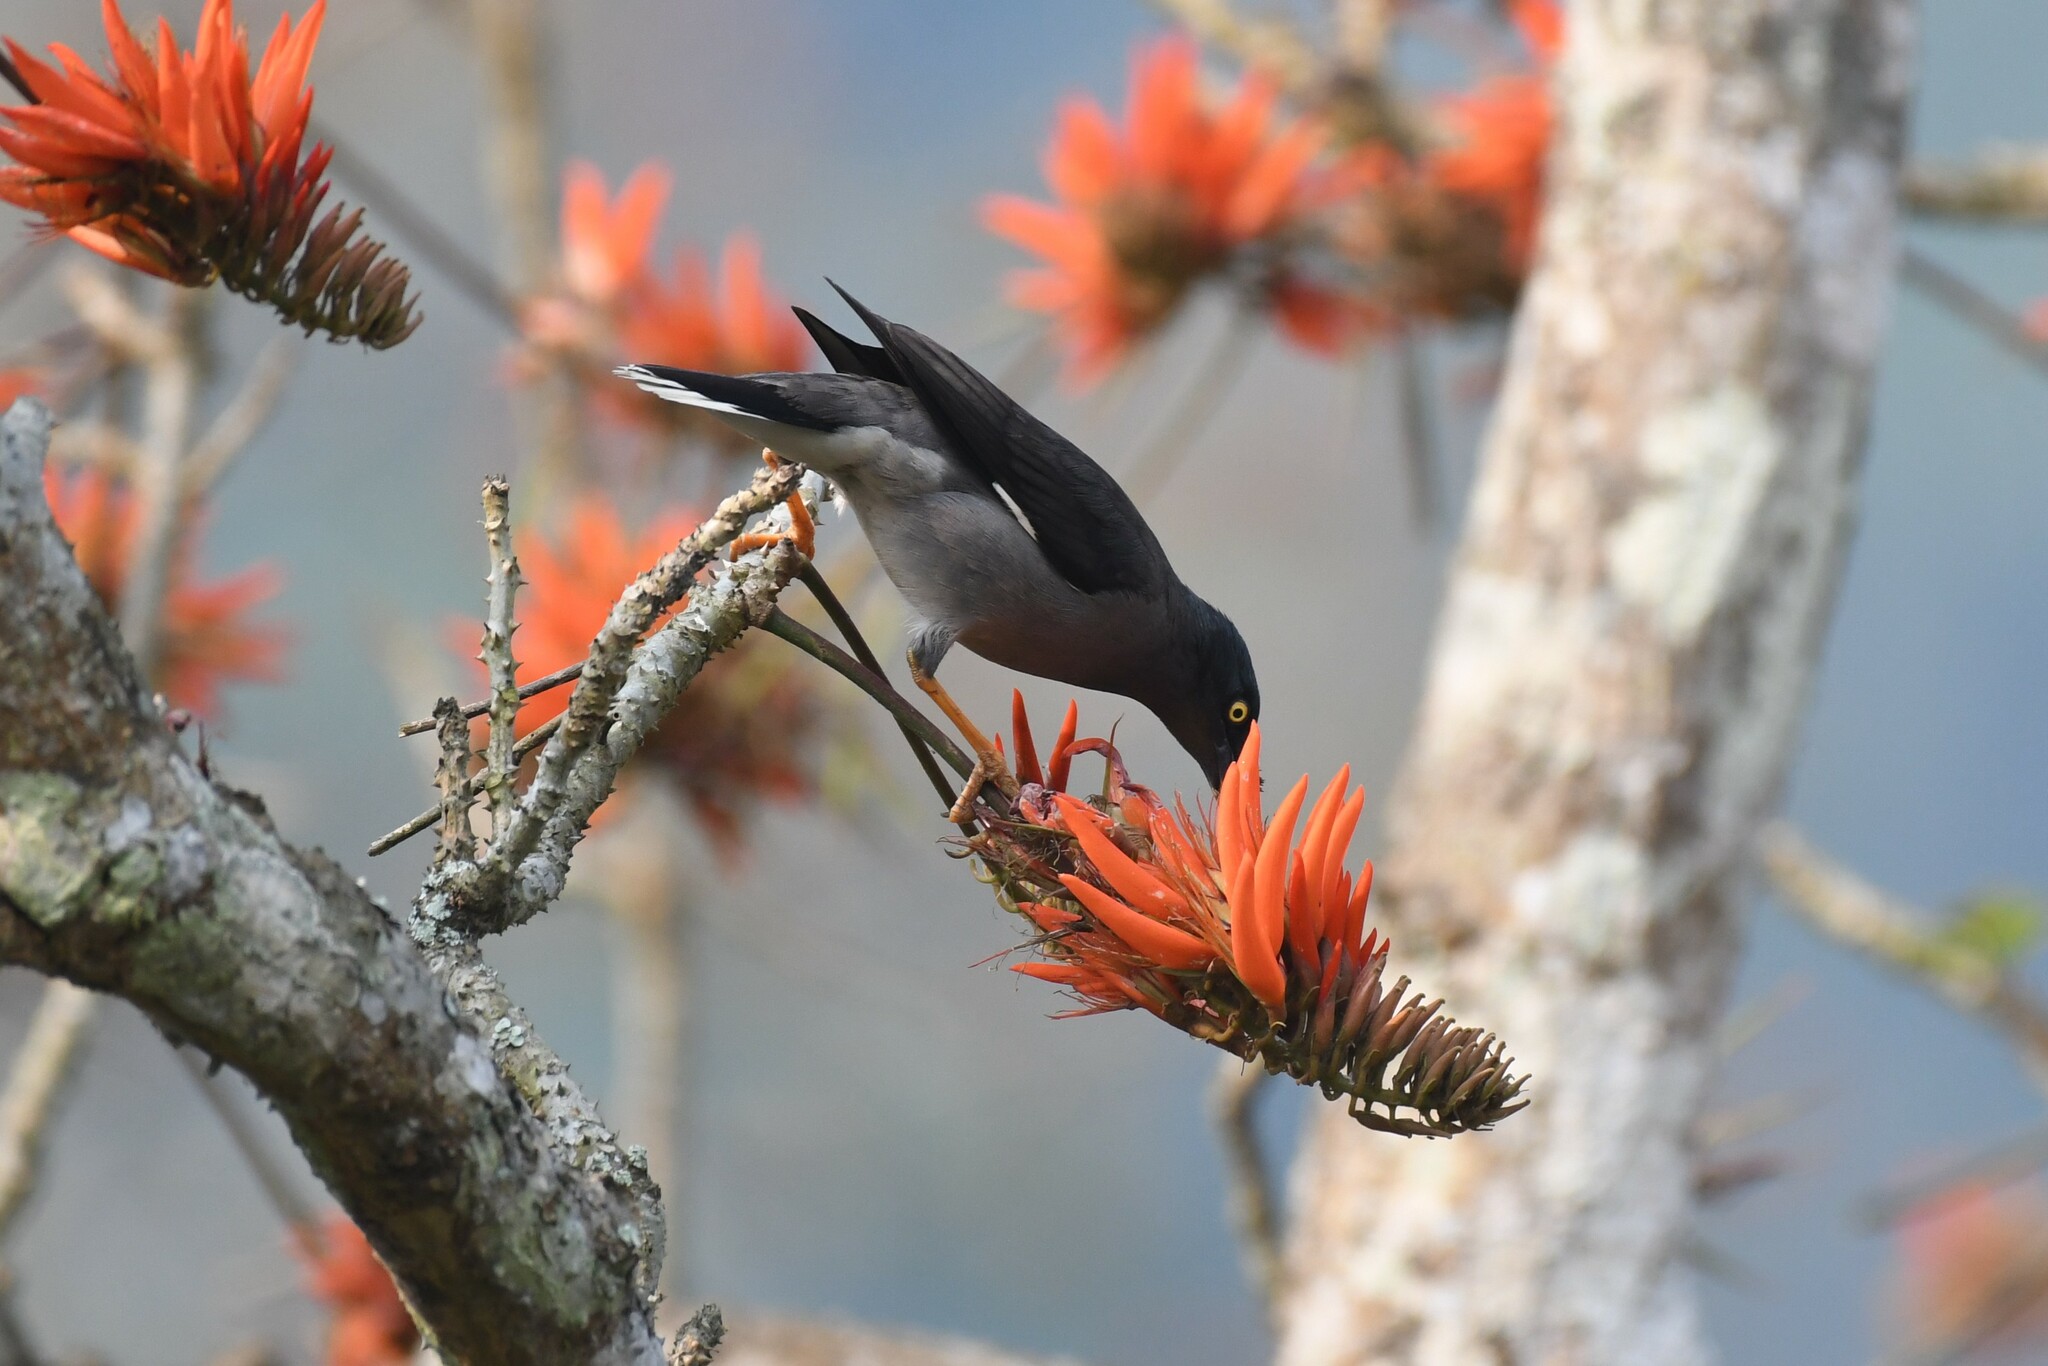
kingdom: Animalia
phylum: Chordata
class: Aves
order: Passeriformes
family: Sturnidae
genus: Acridotheres
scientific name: Acridotheres fuscus
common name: Jungle myna
